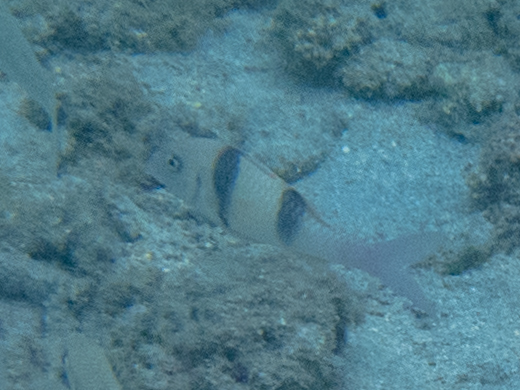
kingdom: Animalia
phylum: Chordata
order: Perciformes
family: Mullidae
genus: Parupeneus
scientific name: Parupeneus trifasciatus
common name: Doublebar goatfish
